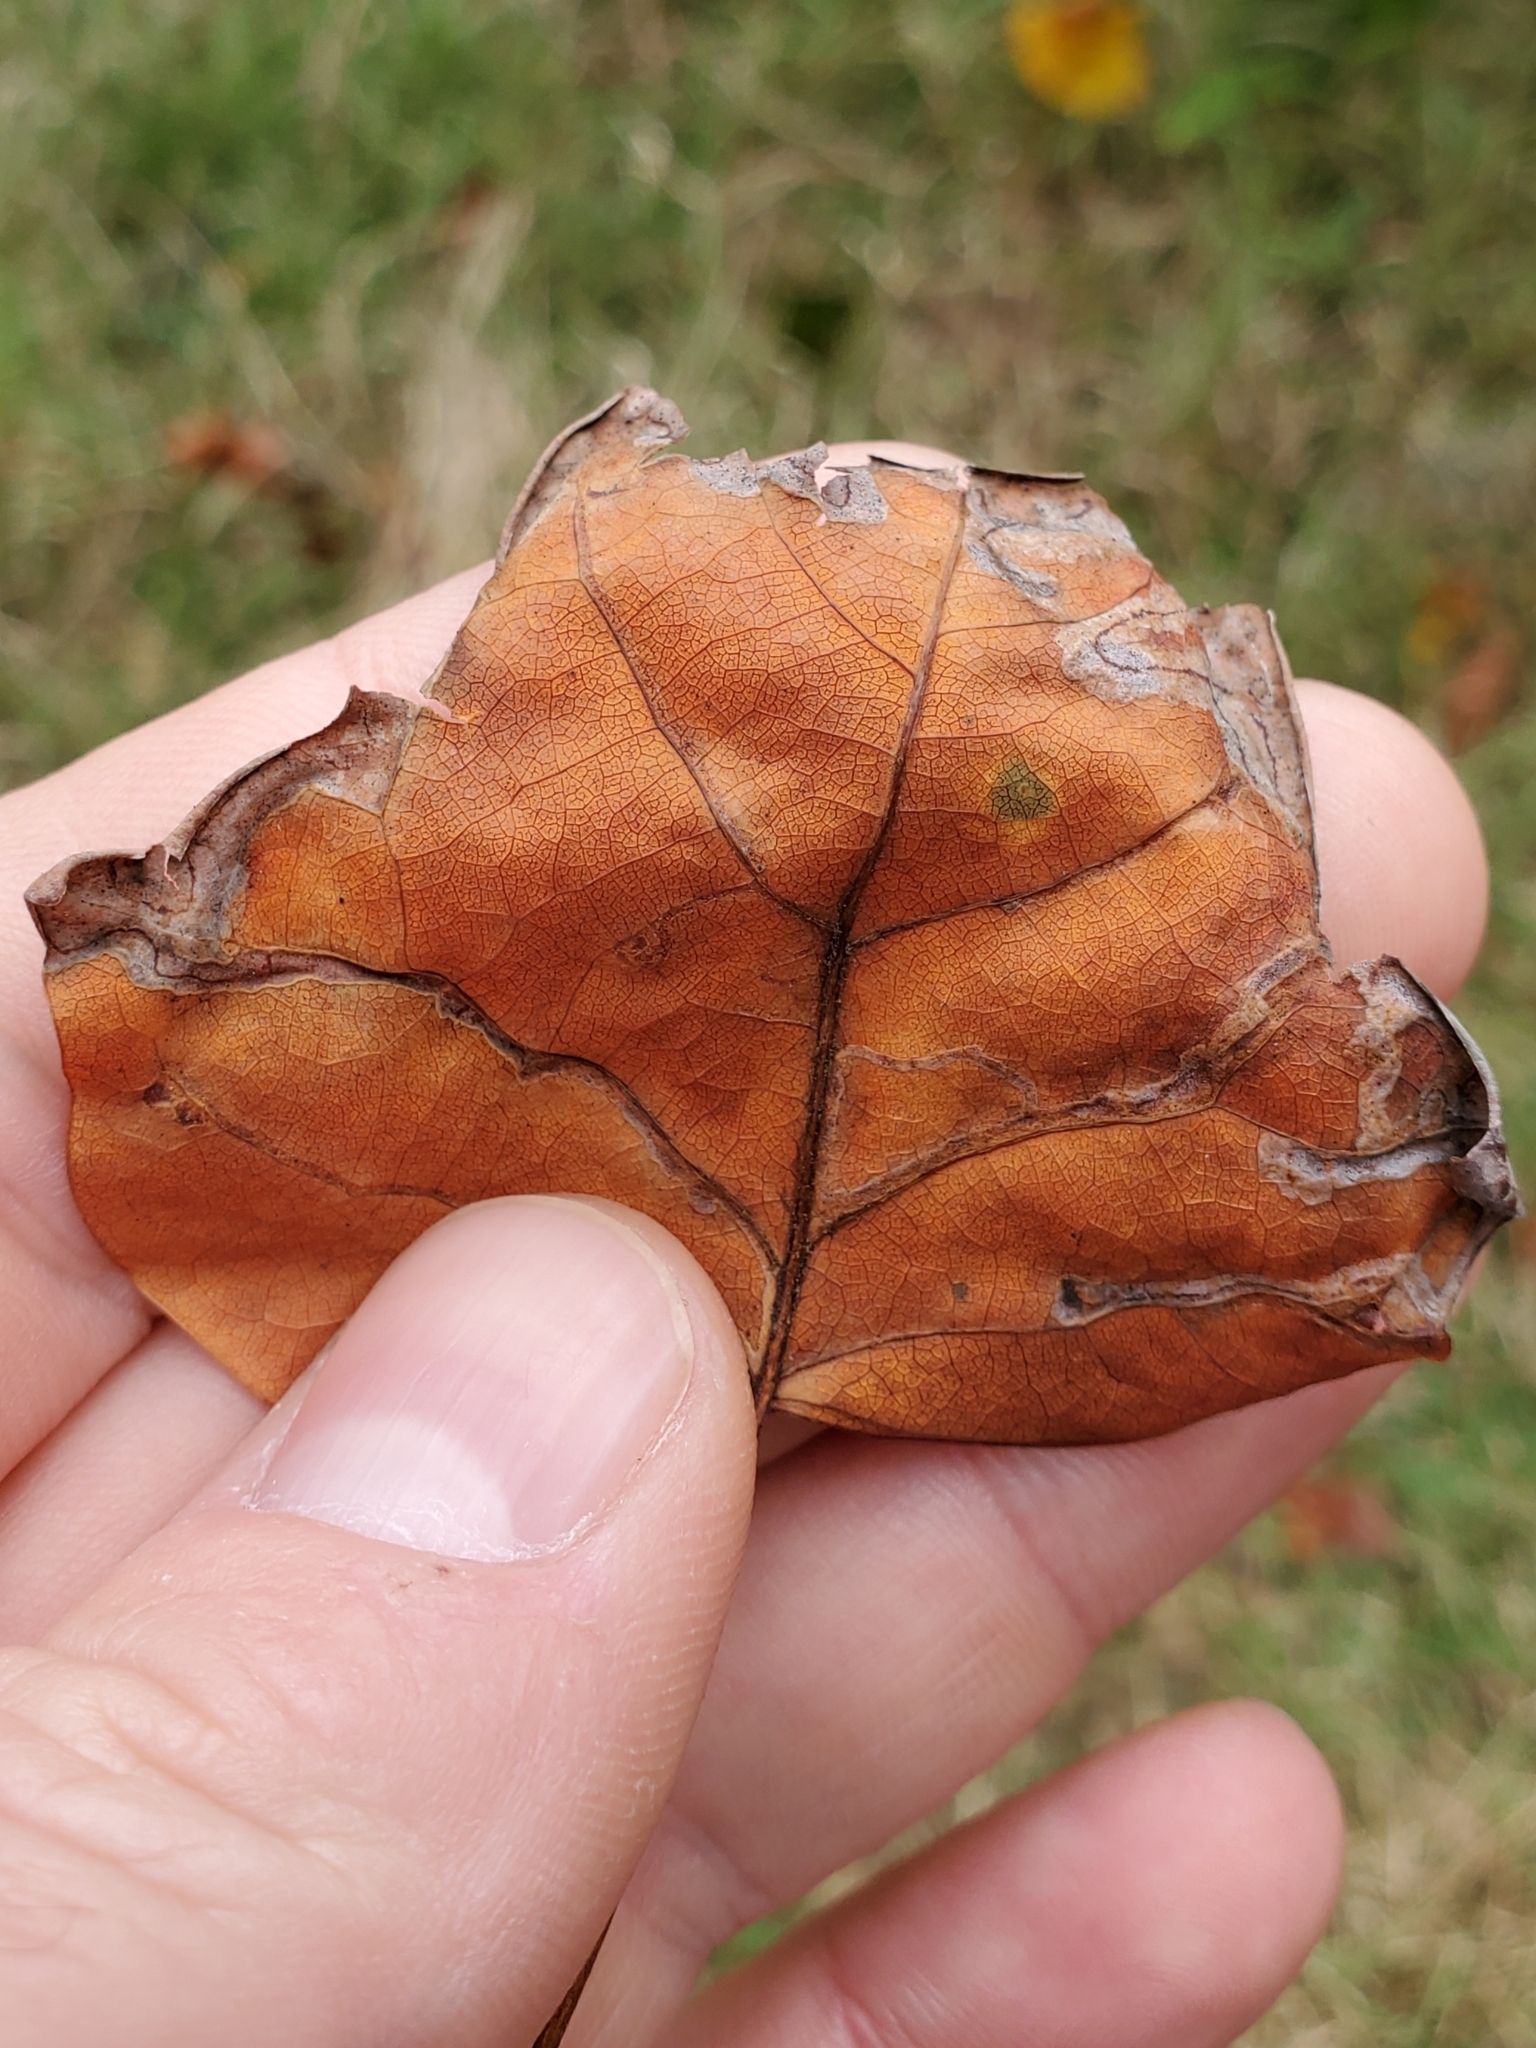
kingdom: Animalia
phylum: Arthropoda
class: Insecta
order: Lepidoptera
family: Gracillariidae
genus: Phyllocnistis
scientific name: Phyllocnistis liriodendronella
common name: Tulip tree leaf miner
